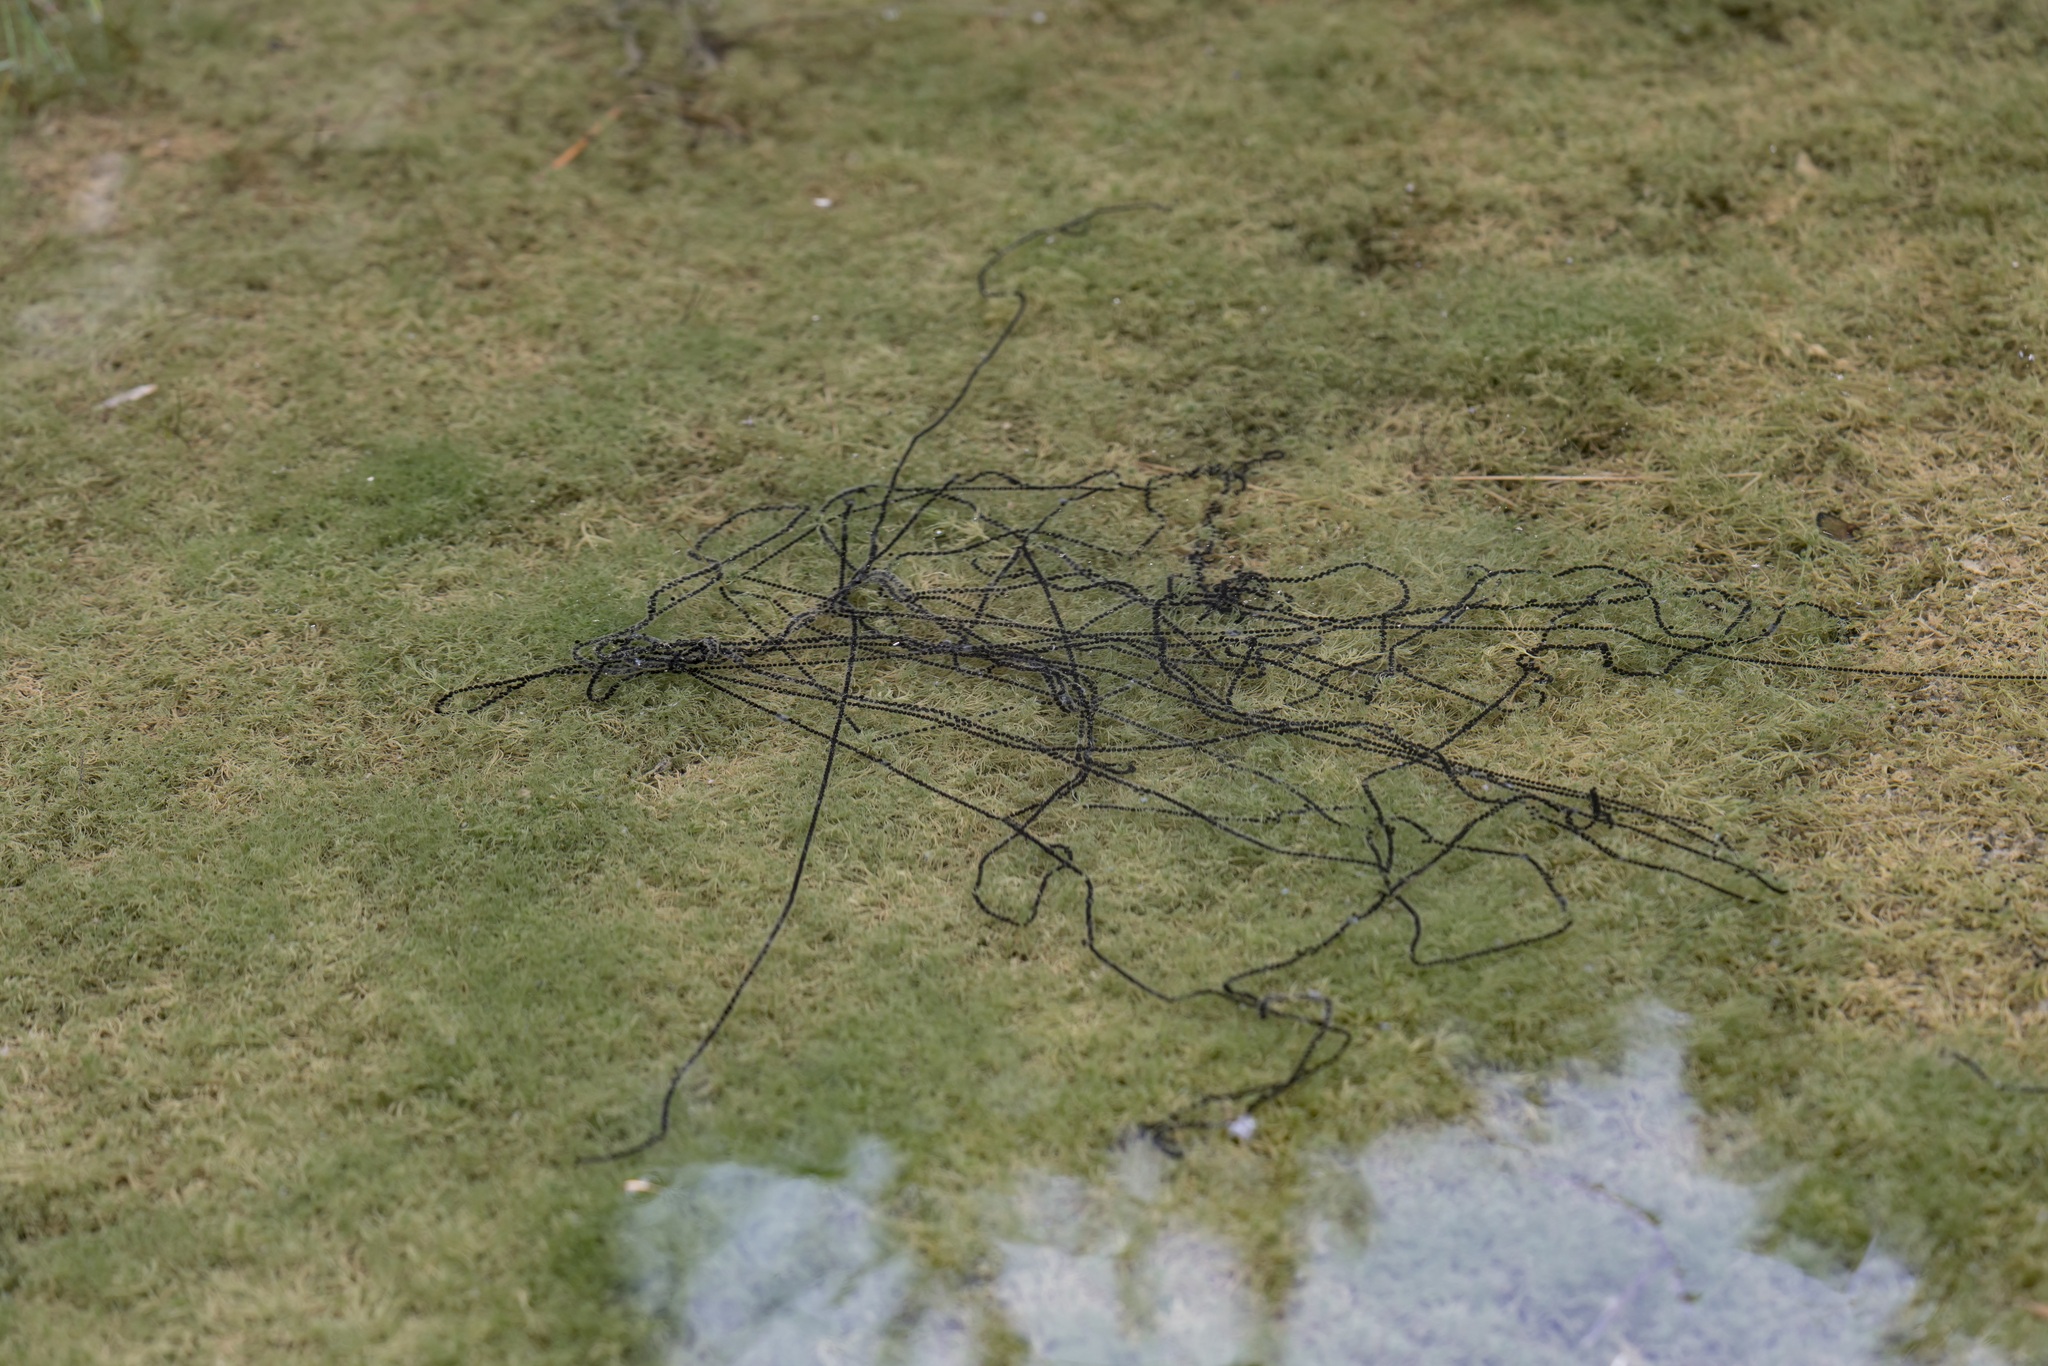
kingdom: Animalia
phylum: Chordata
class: Amphibia
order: Anura
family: Bufonidae
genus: Bufotes
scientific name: Bufotes viridis
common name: European green toad
